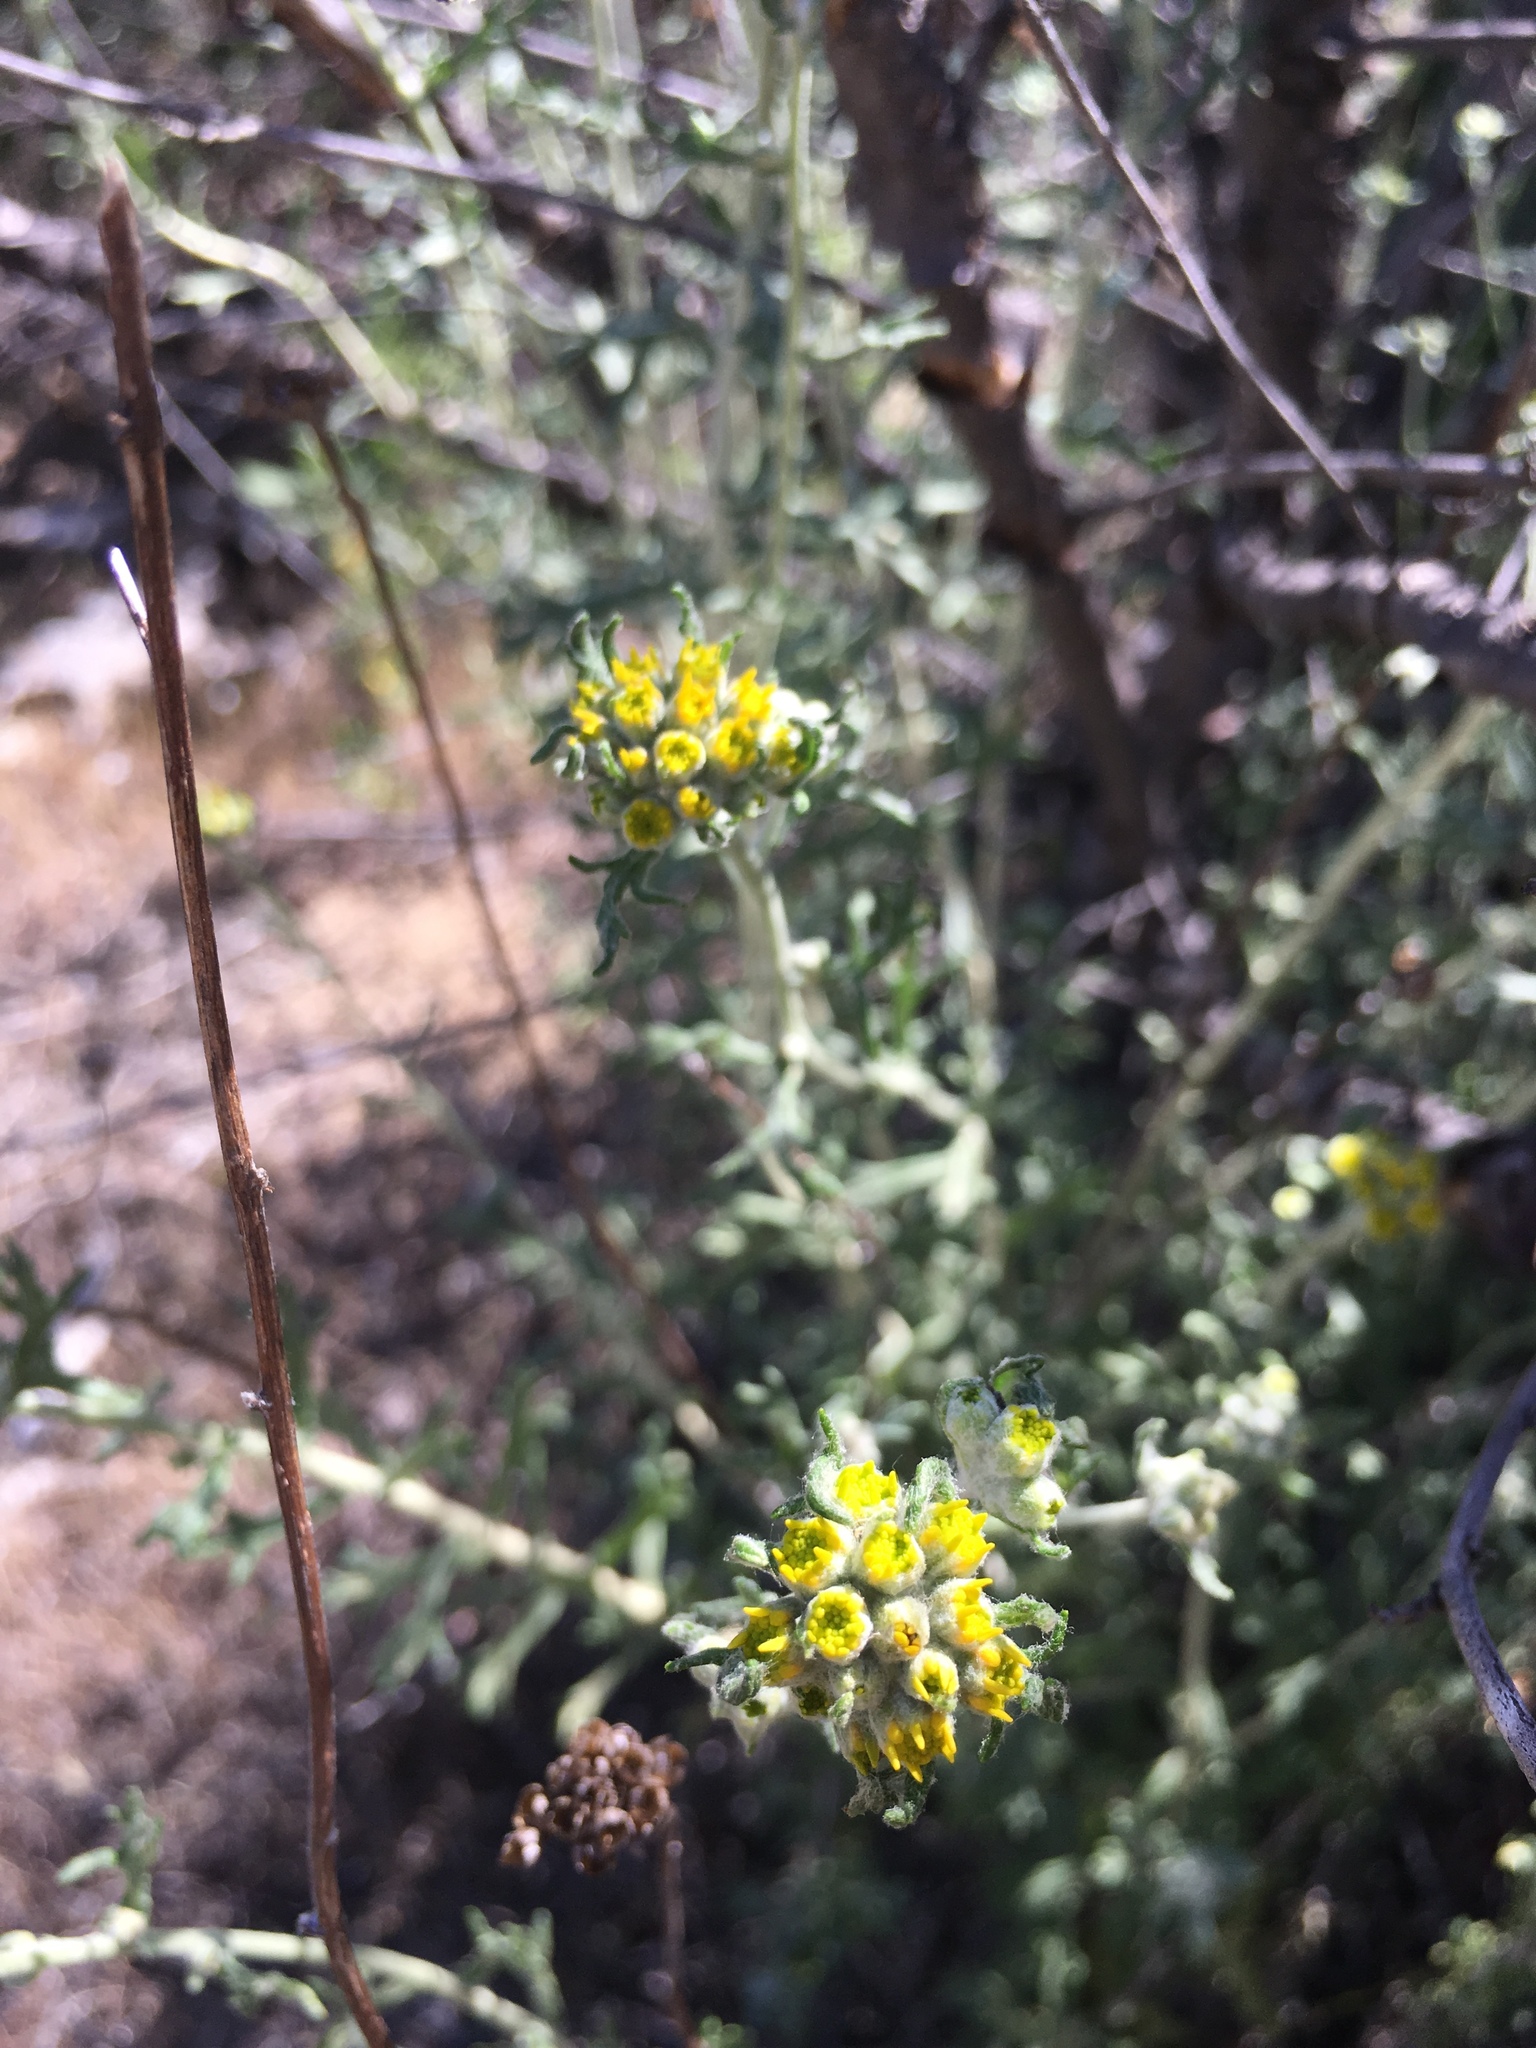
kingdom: Plantae
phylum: Tracheophyta
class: Magnoliopsida
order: Asterales
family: Asteraceae
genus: Eriophyllum
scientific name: Eriophyllum confertiflorum
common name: Golden-yarrow
